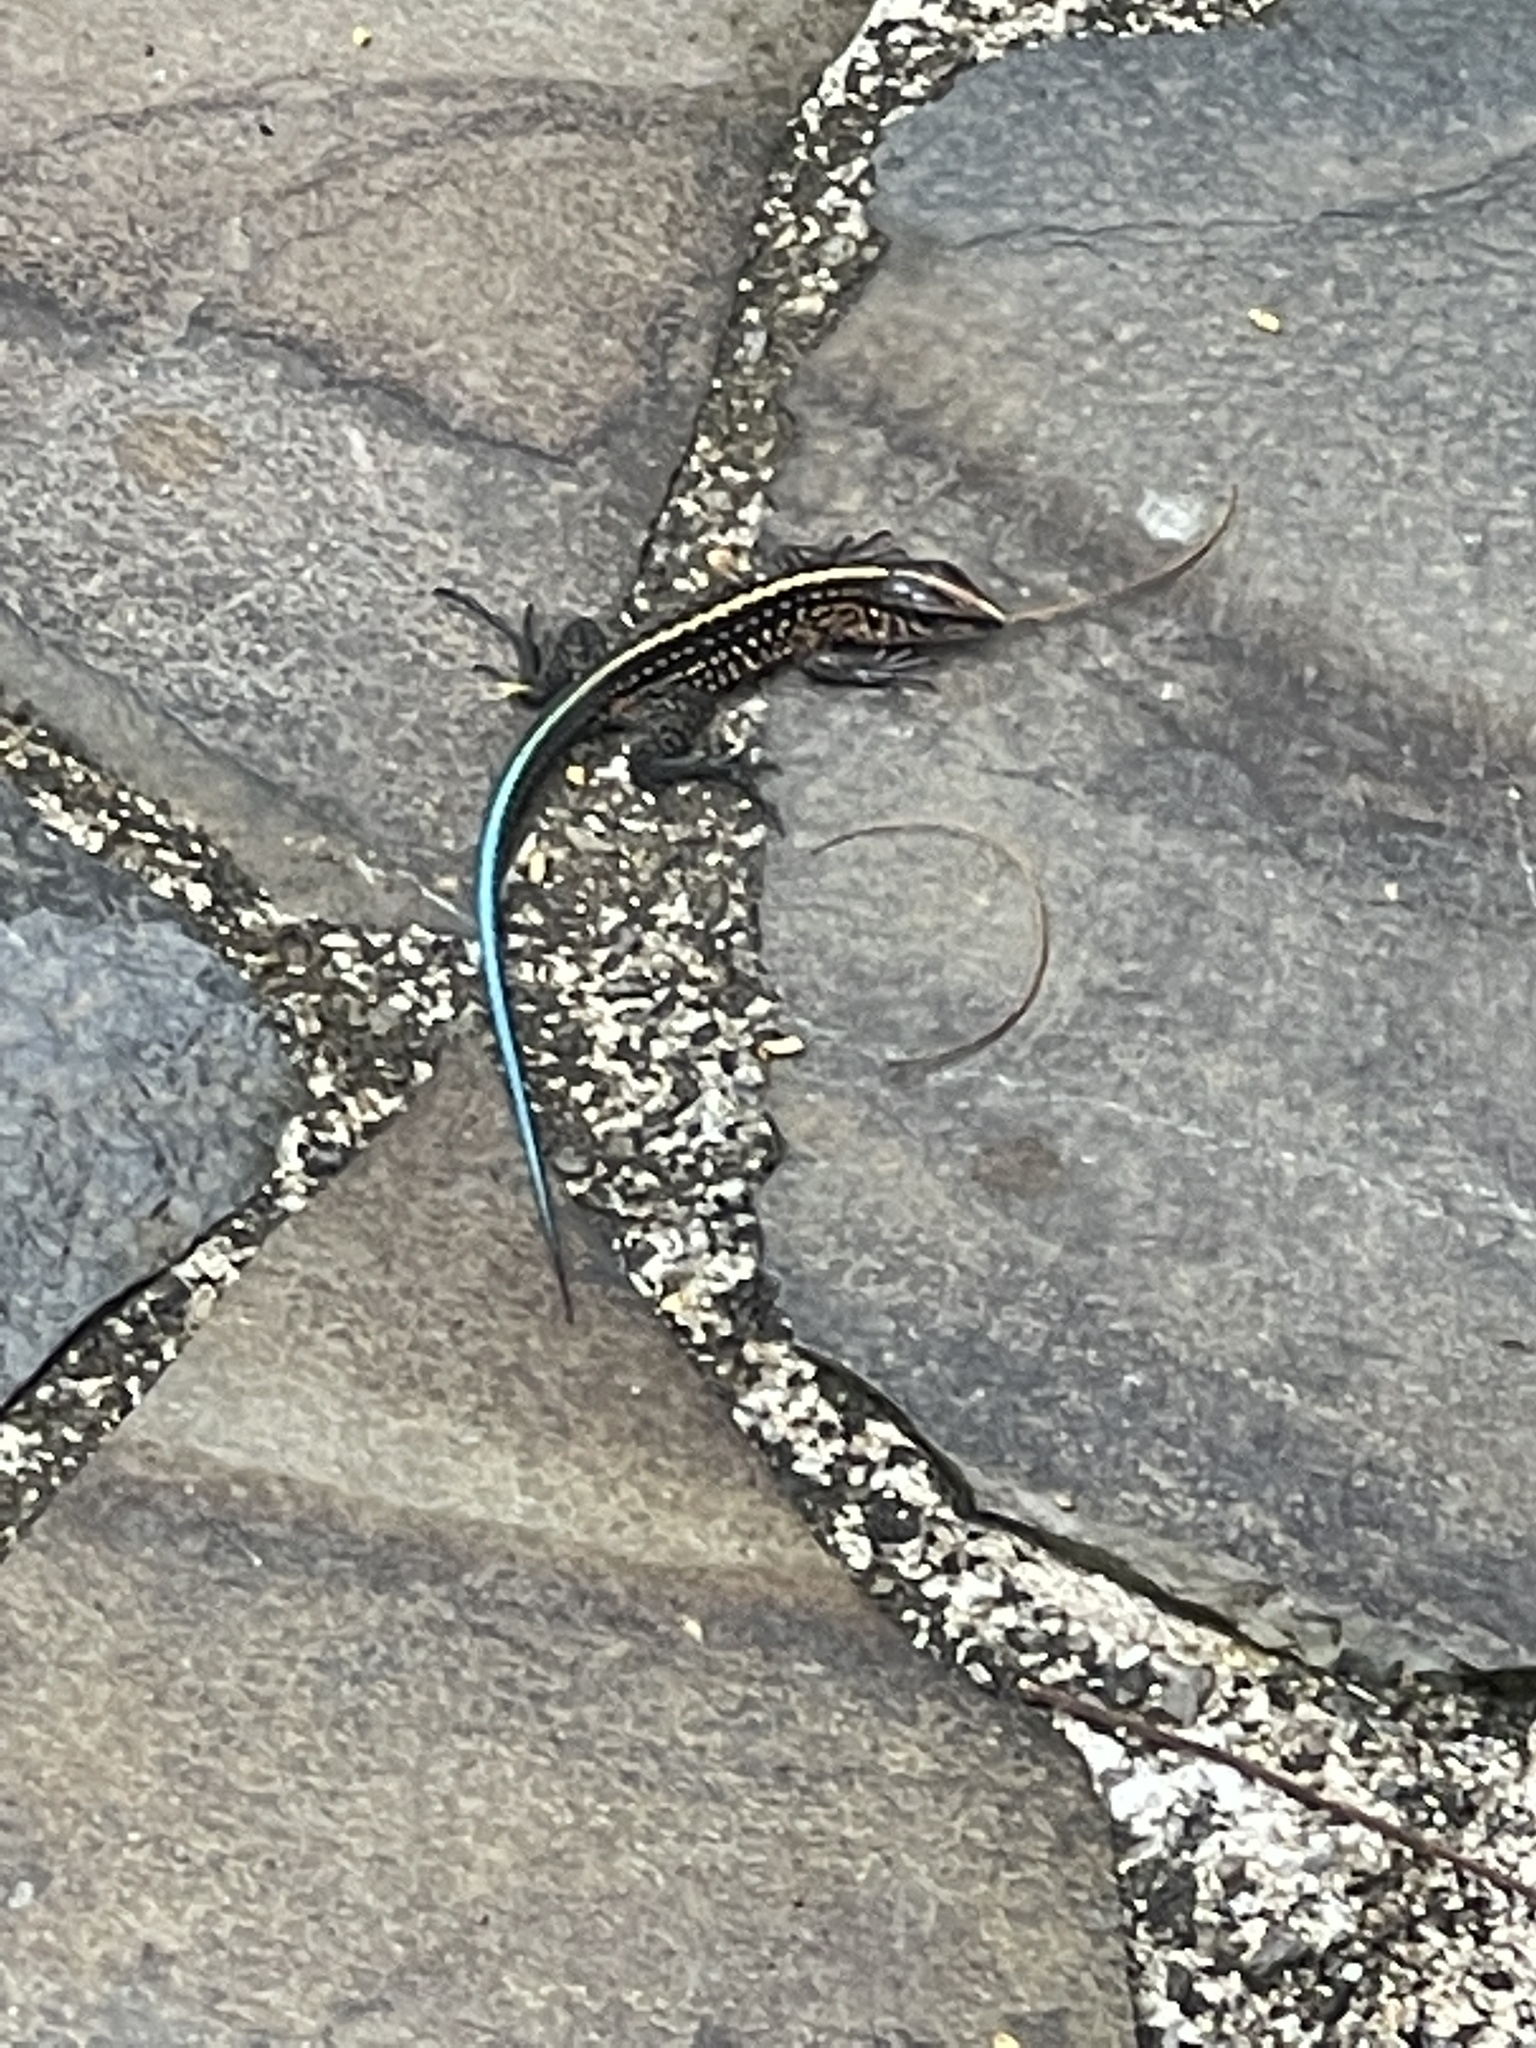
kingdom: Animalia
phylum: Chordata
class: Squamata
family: Teiidae
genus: Holcosus
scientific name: Holcosus festivus
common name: Middle american ameiva
